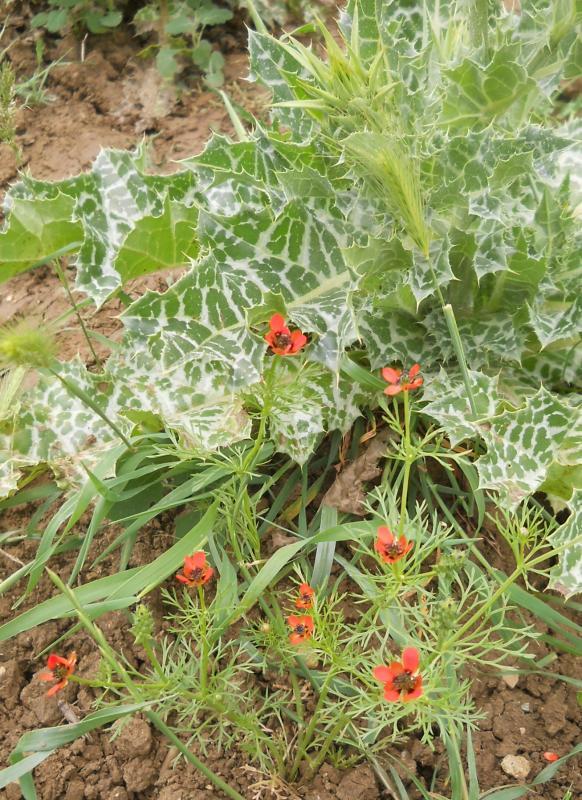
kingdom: Plantae
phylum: Tracheophyta
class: Magnoliopsida
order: Ranunculales
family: Ranunculaceae
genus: Adonis
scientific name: Adonis annua
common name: Pheasant's-eye
